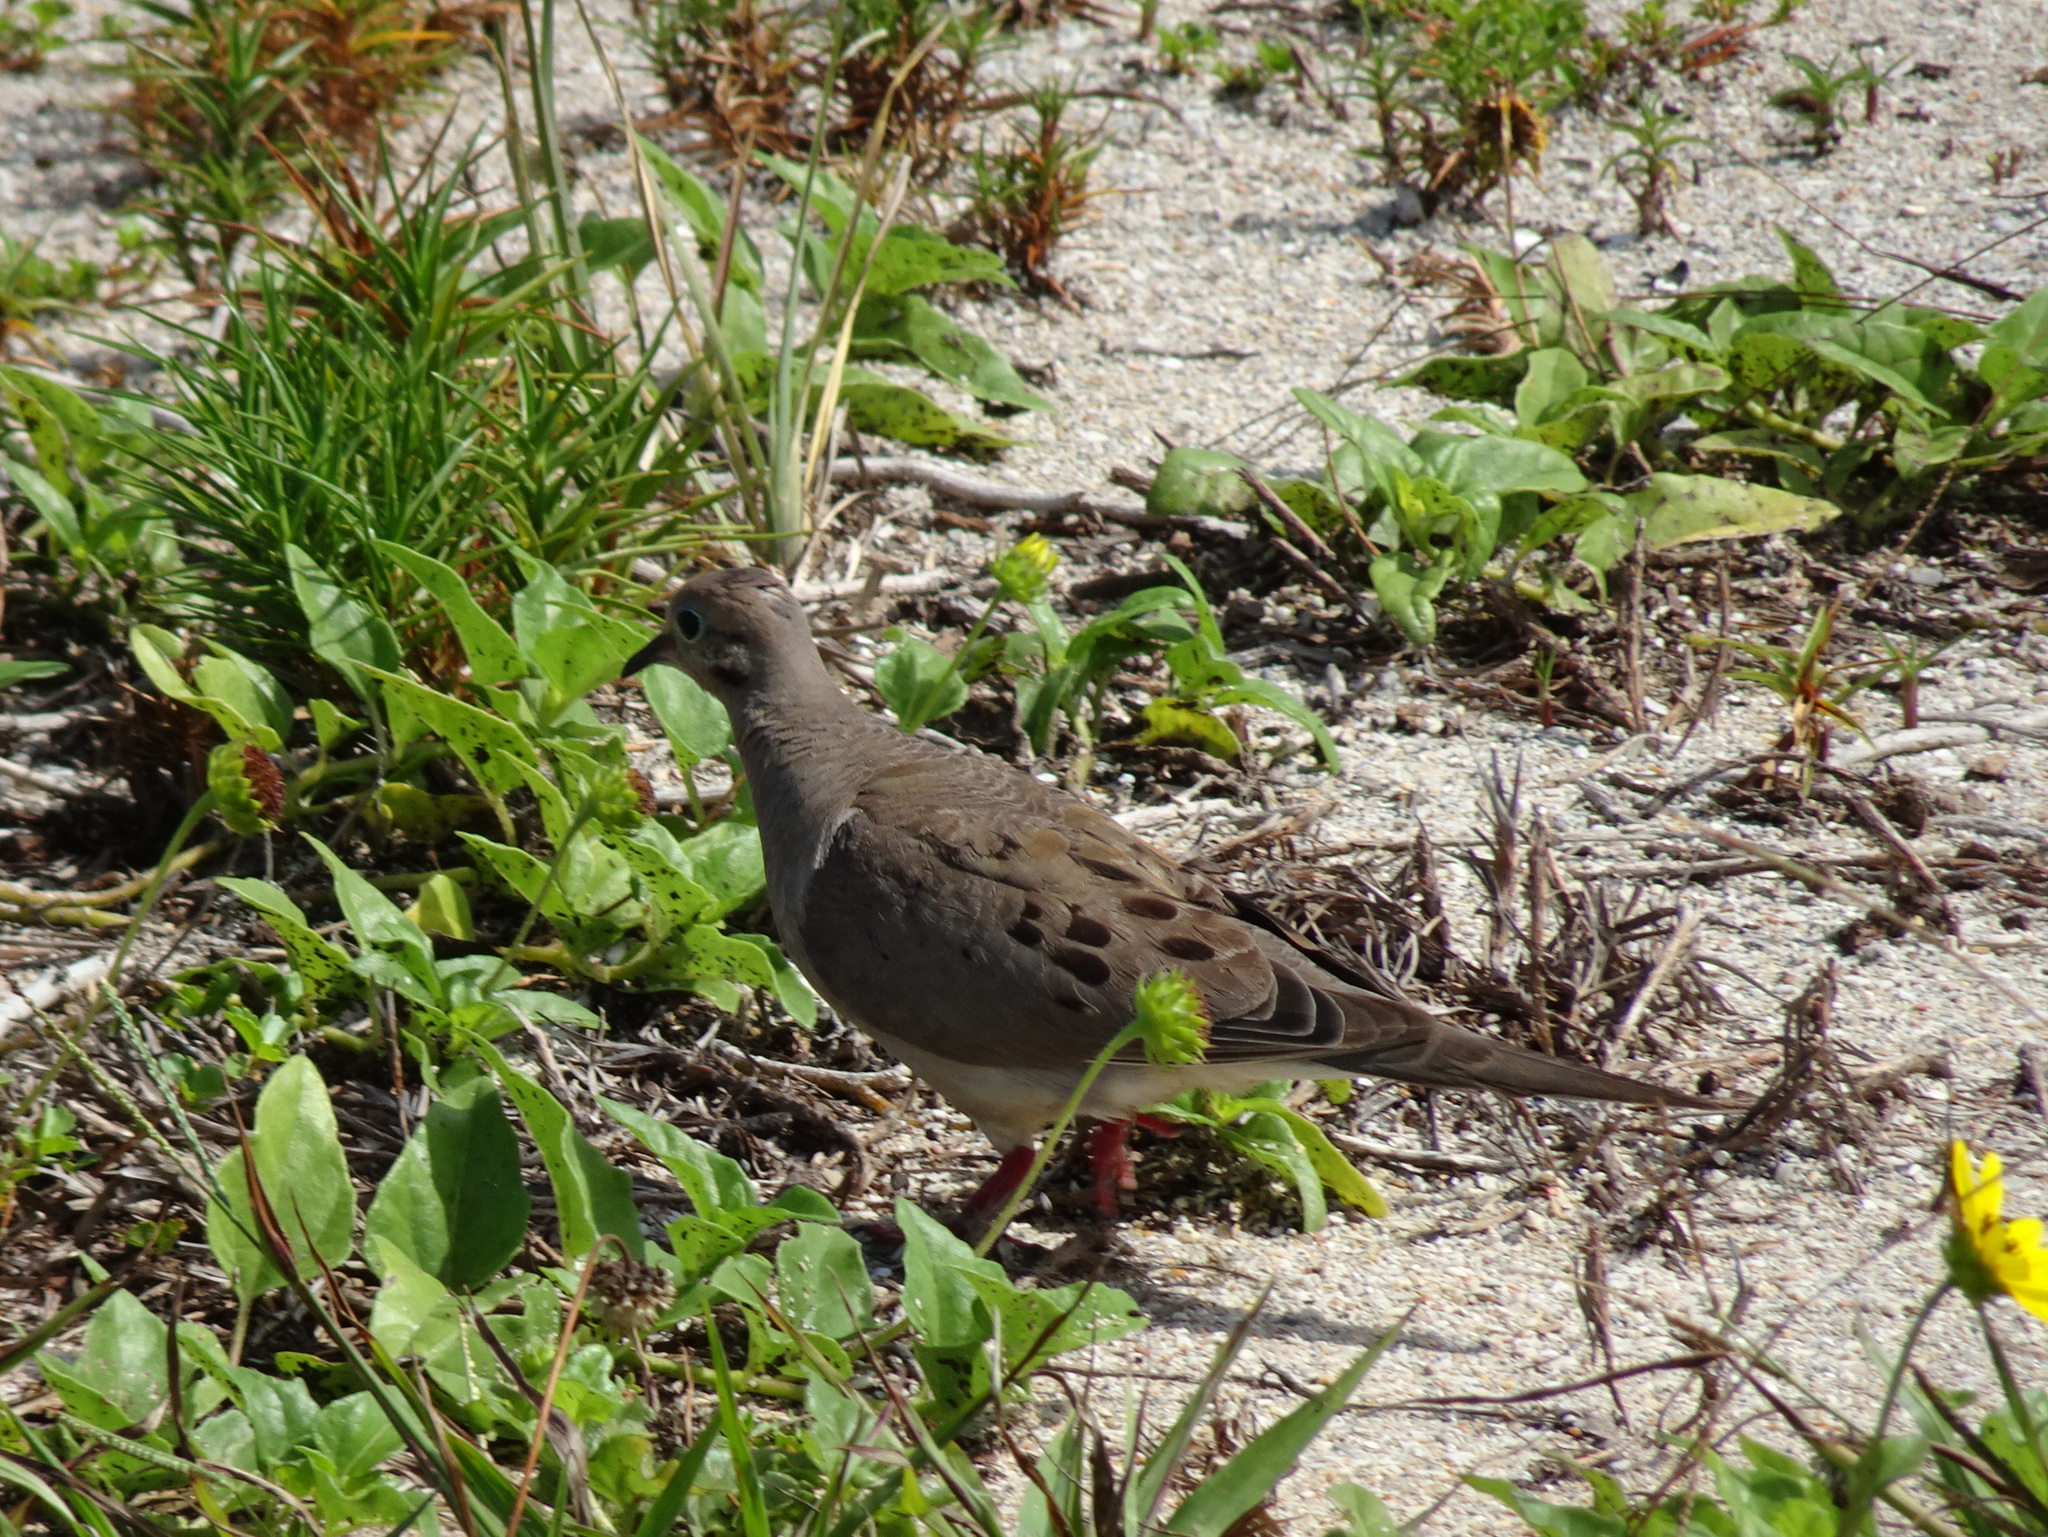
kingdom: Animalia
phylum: Chordata
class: Aves
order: Columbiformes
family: Columbidae
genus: Columbina
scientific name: Columbina passerina
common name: Common ground-dove
